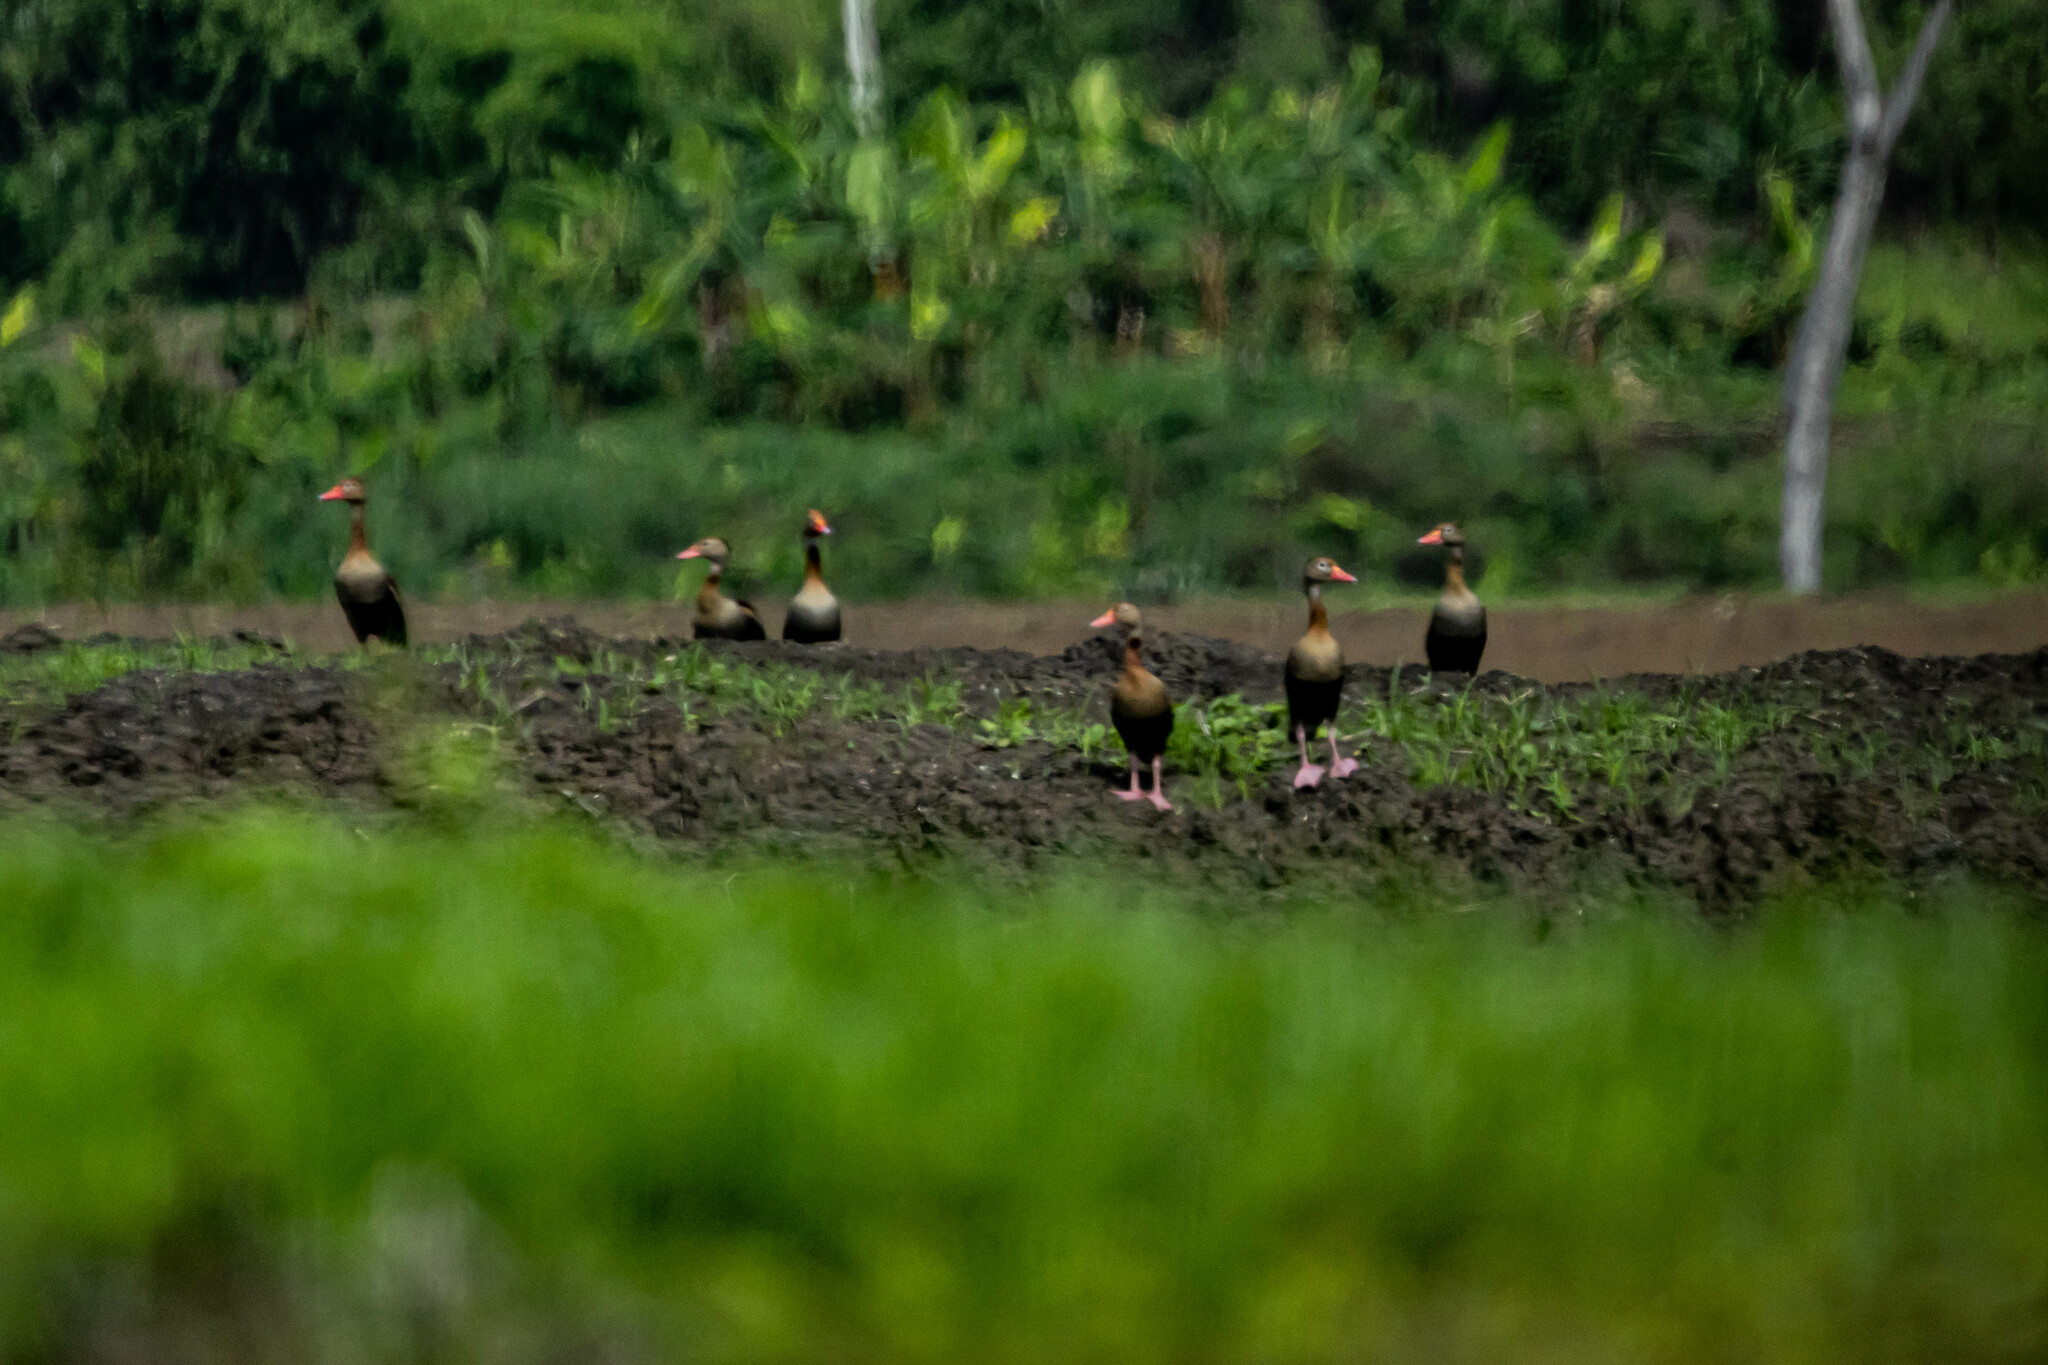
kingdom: Animalia
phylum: Chordata
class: Aves
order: Anseriformes
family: Anatidae
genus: Dendrocygna
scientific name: Dendrocygna autumnalis
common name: Black-bellied whistling duck
